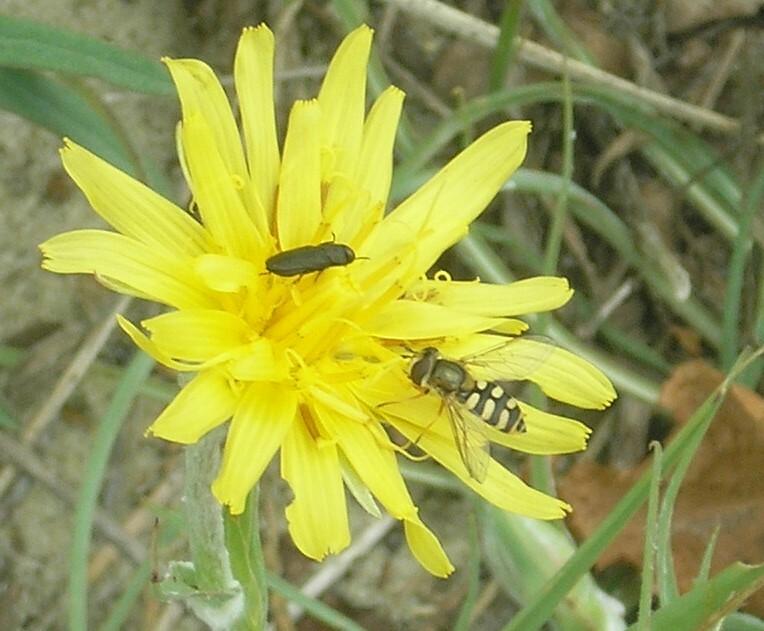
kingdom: Animalia
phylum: Arthropoda
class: Insecta
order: Diptera
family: Syrphidae
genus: Eupeodes
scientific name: Eupeodes corollae
